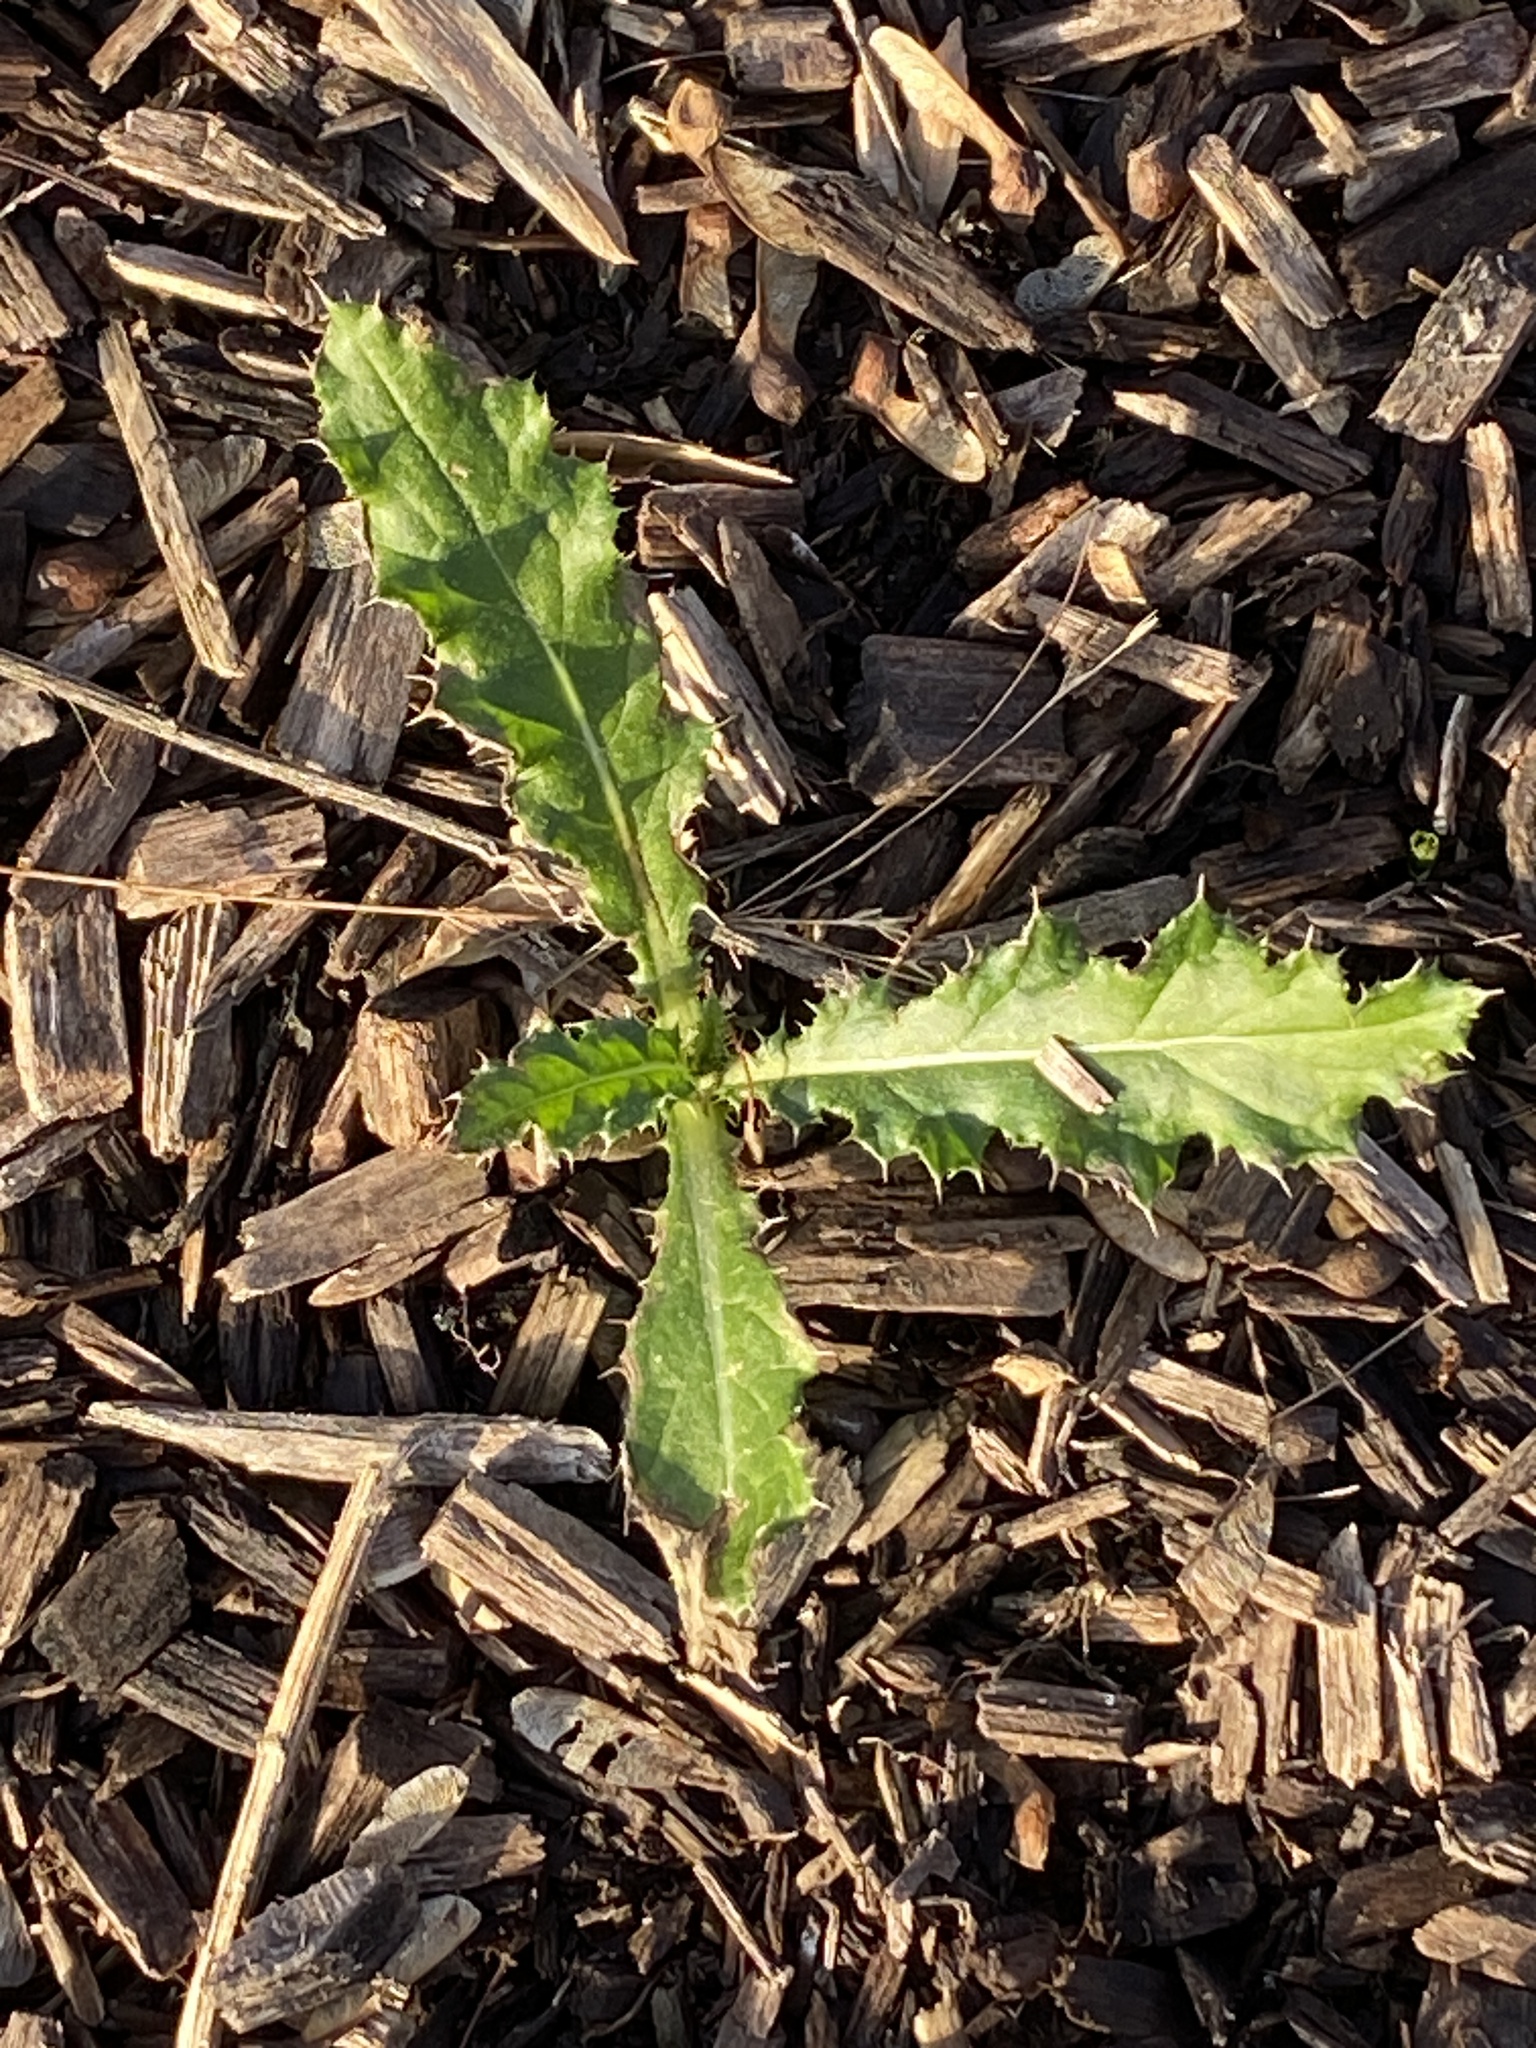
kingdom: Plantae
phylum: Tracheophyta
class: Magnoliopsida
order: Asterales
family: Asteraceae
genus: Cirsium
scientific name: Cirsium arvense
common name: Creeping thistle
